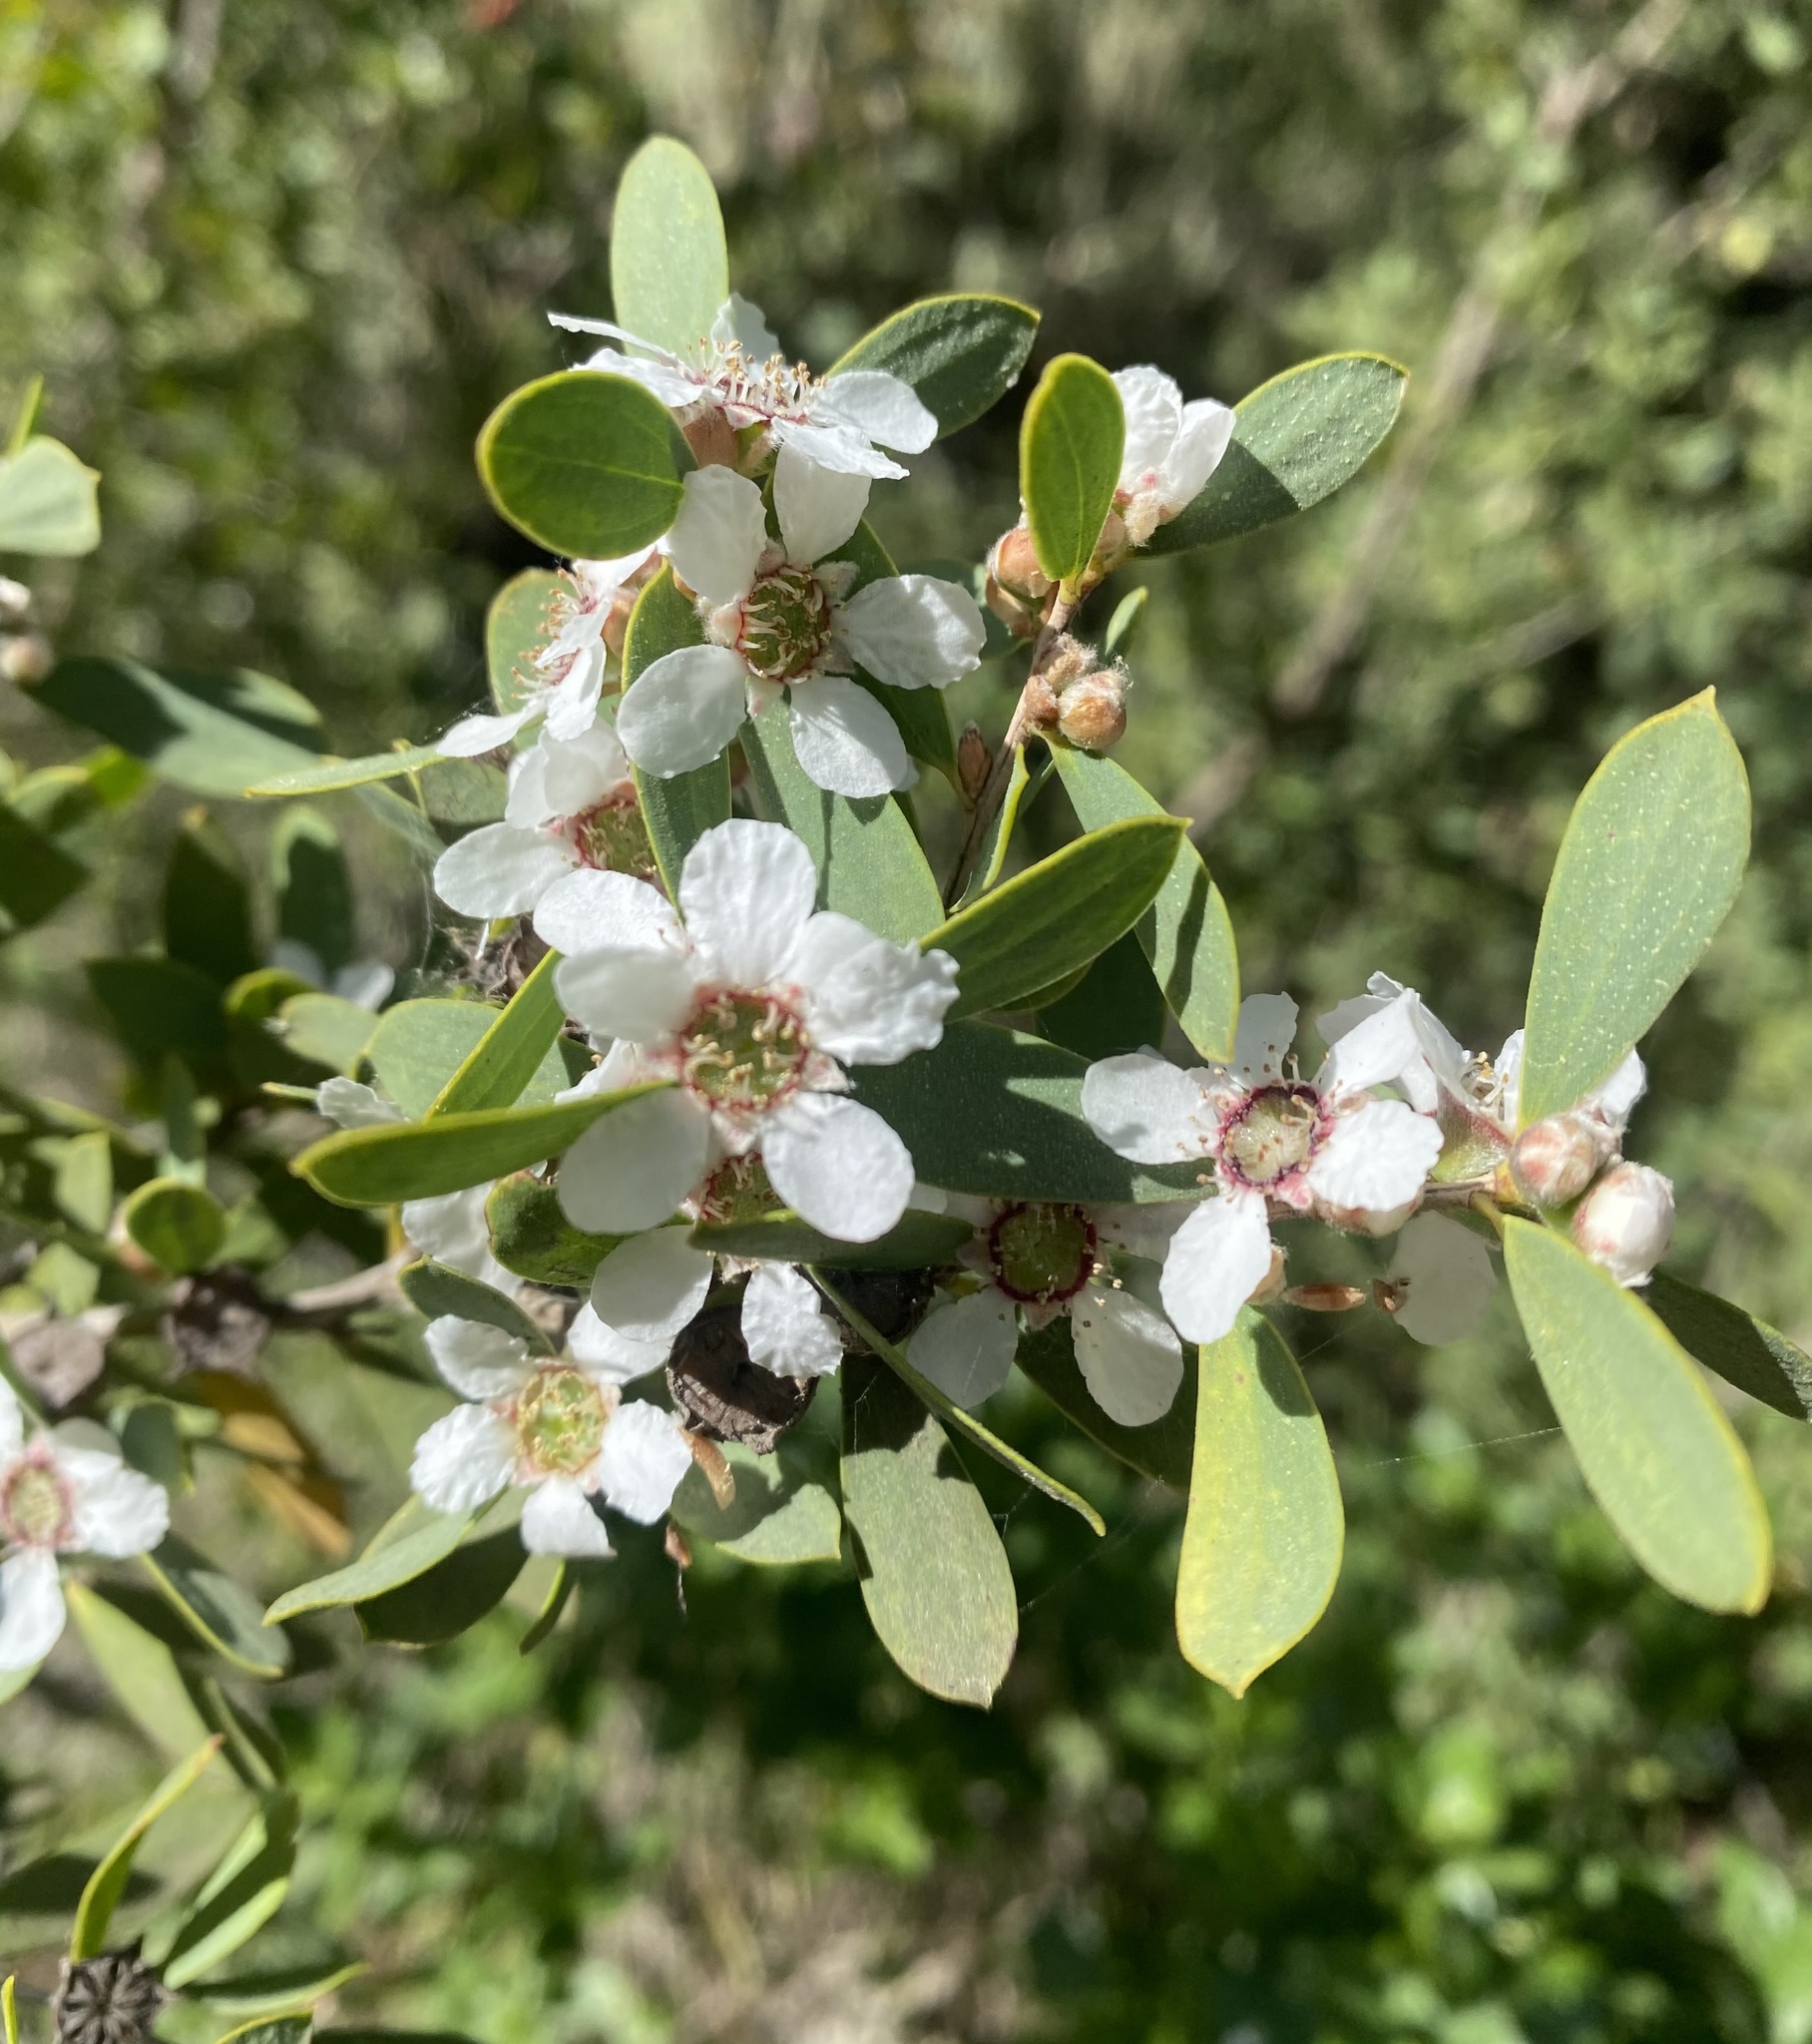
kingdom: Plantae
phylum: Tracheophyta
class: Magnoliopsida
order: Myrtales
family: Myrtaceae
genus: Leptospermum
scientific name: Leptospermum laevigatum
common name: Australian teatree
